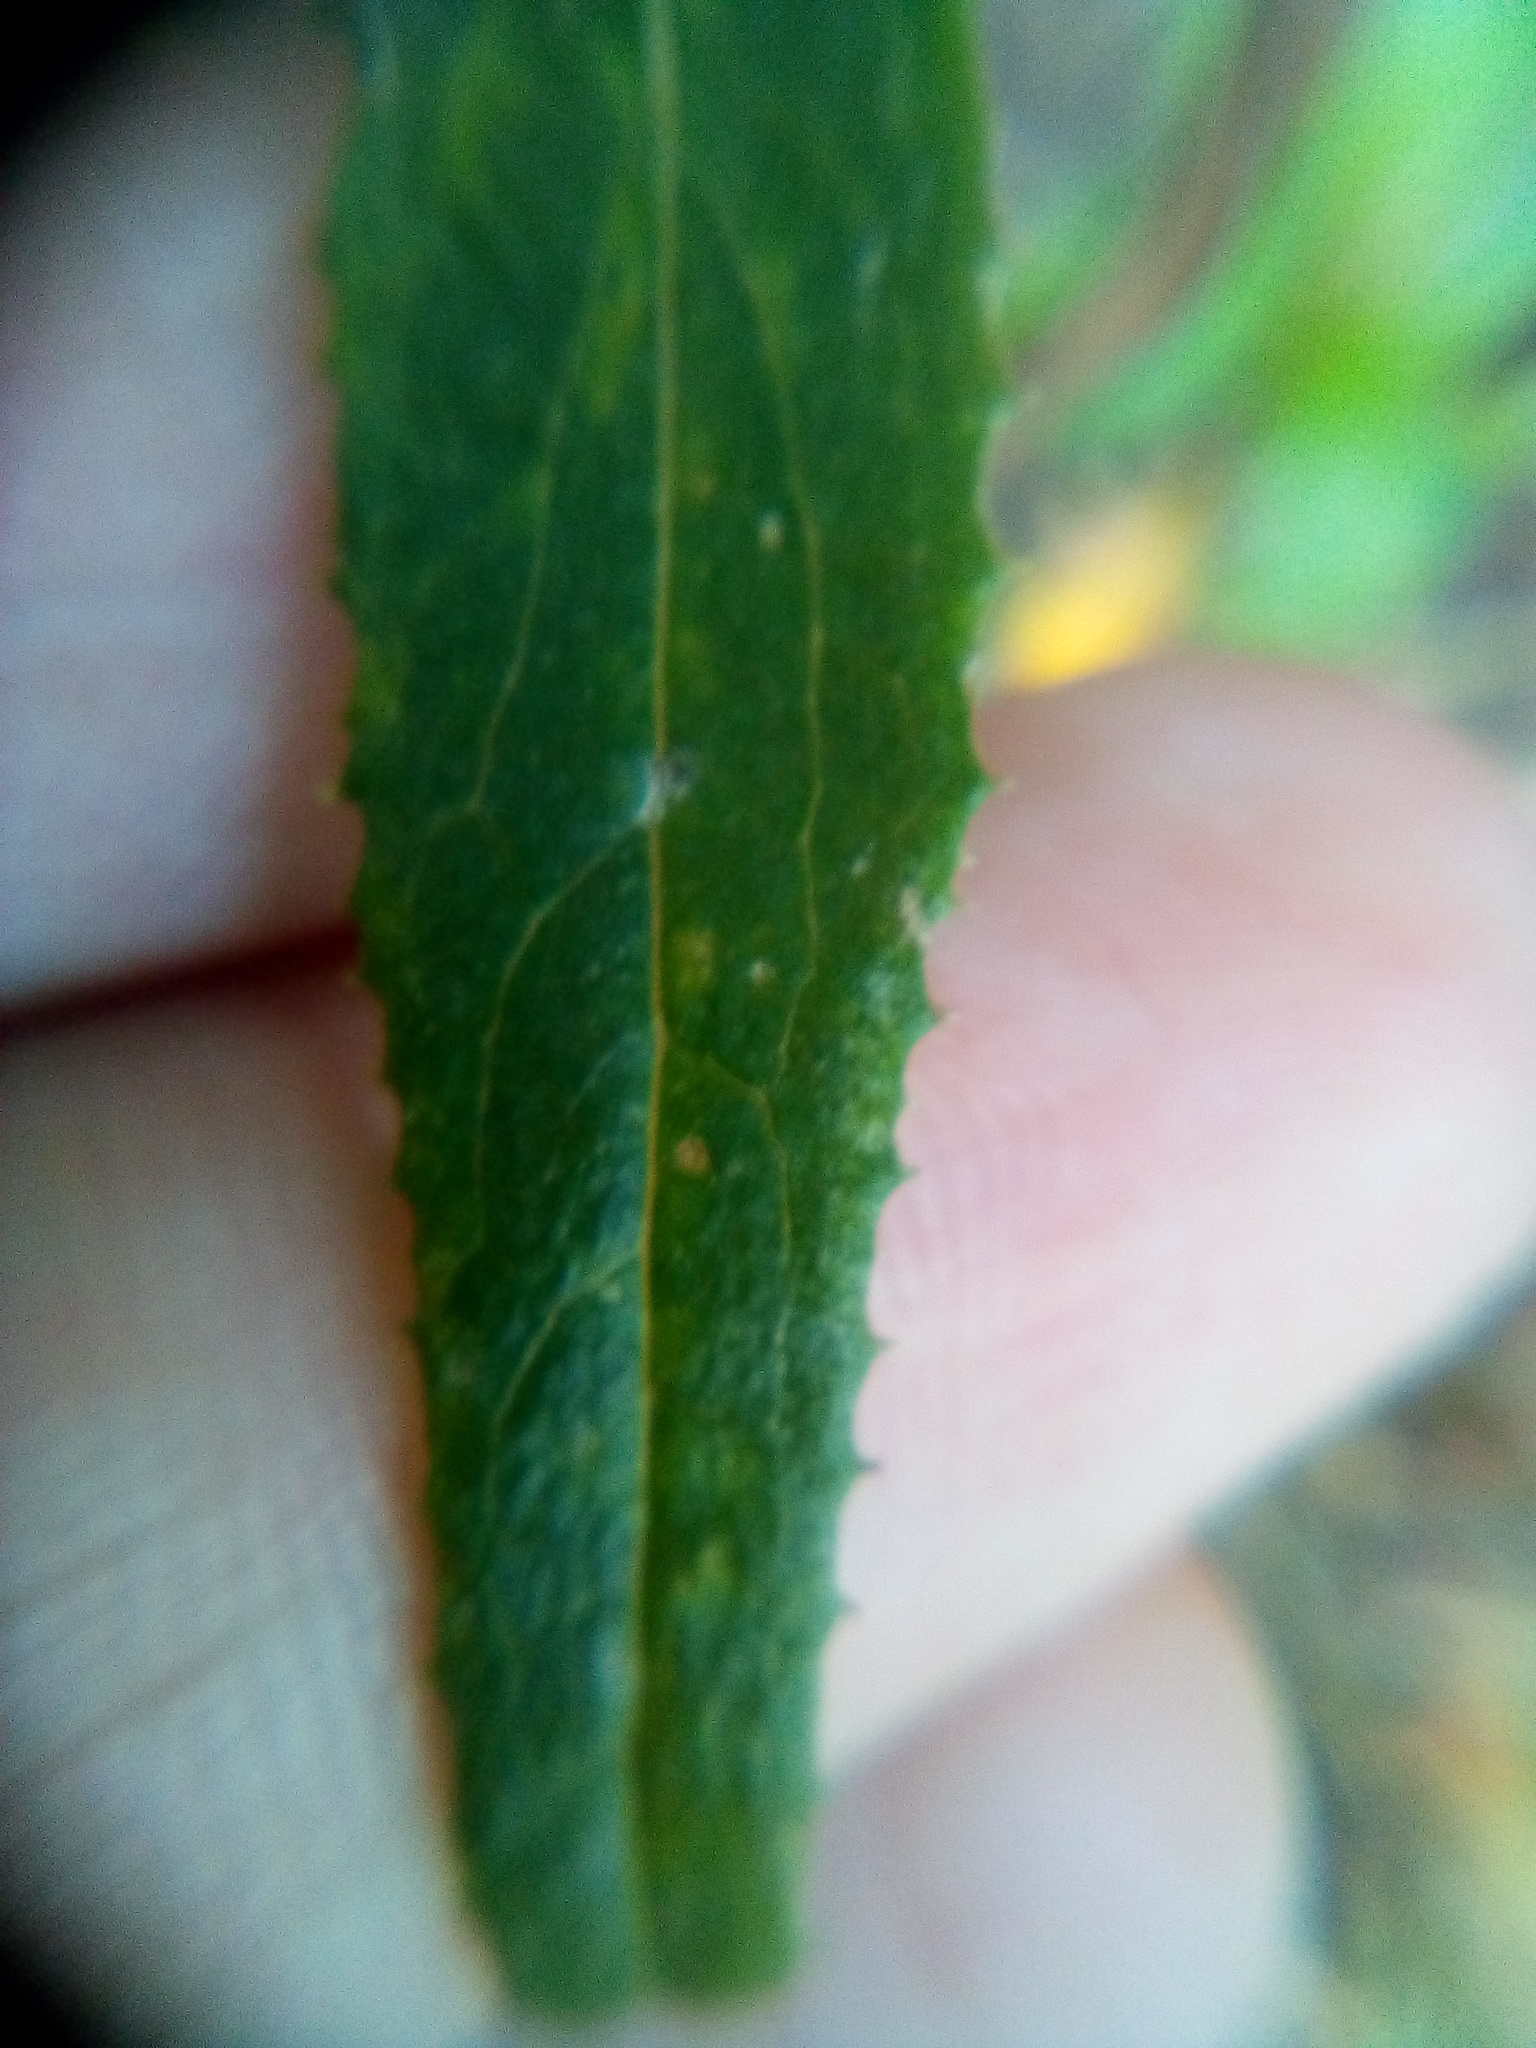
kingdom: Plantae
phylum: Tracheophyta
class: Magnoliopsida
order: Asterales
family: Asteraceae
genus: Senecio
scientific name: Senecio minimus
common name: Toothed fireweed
